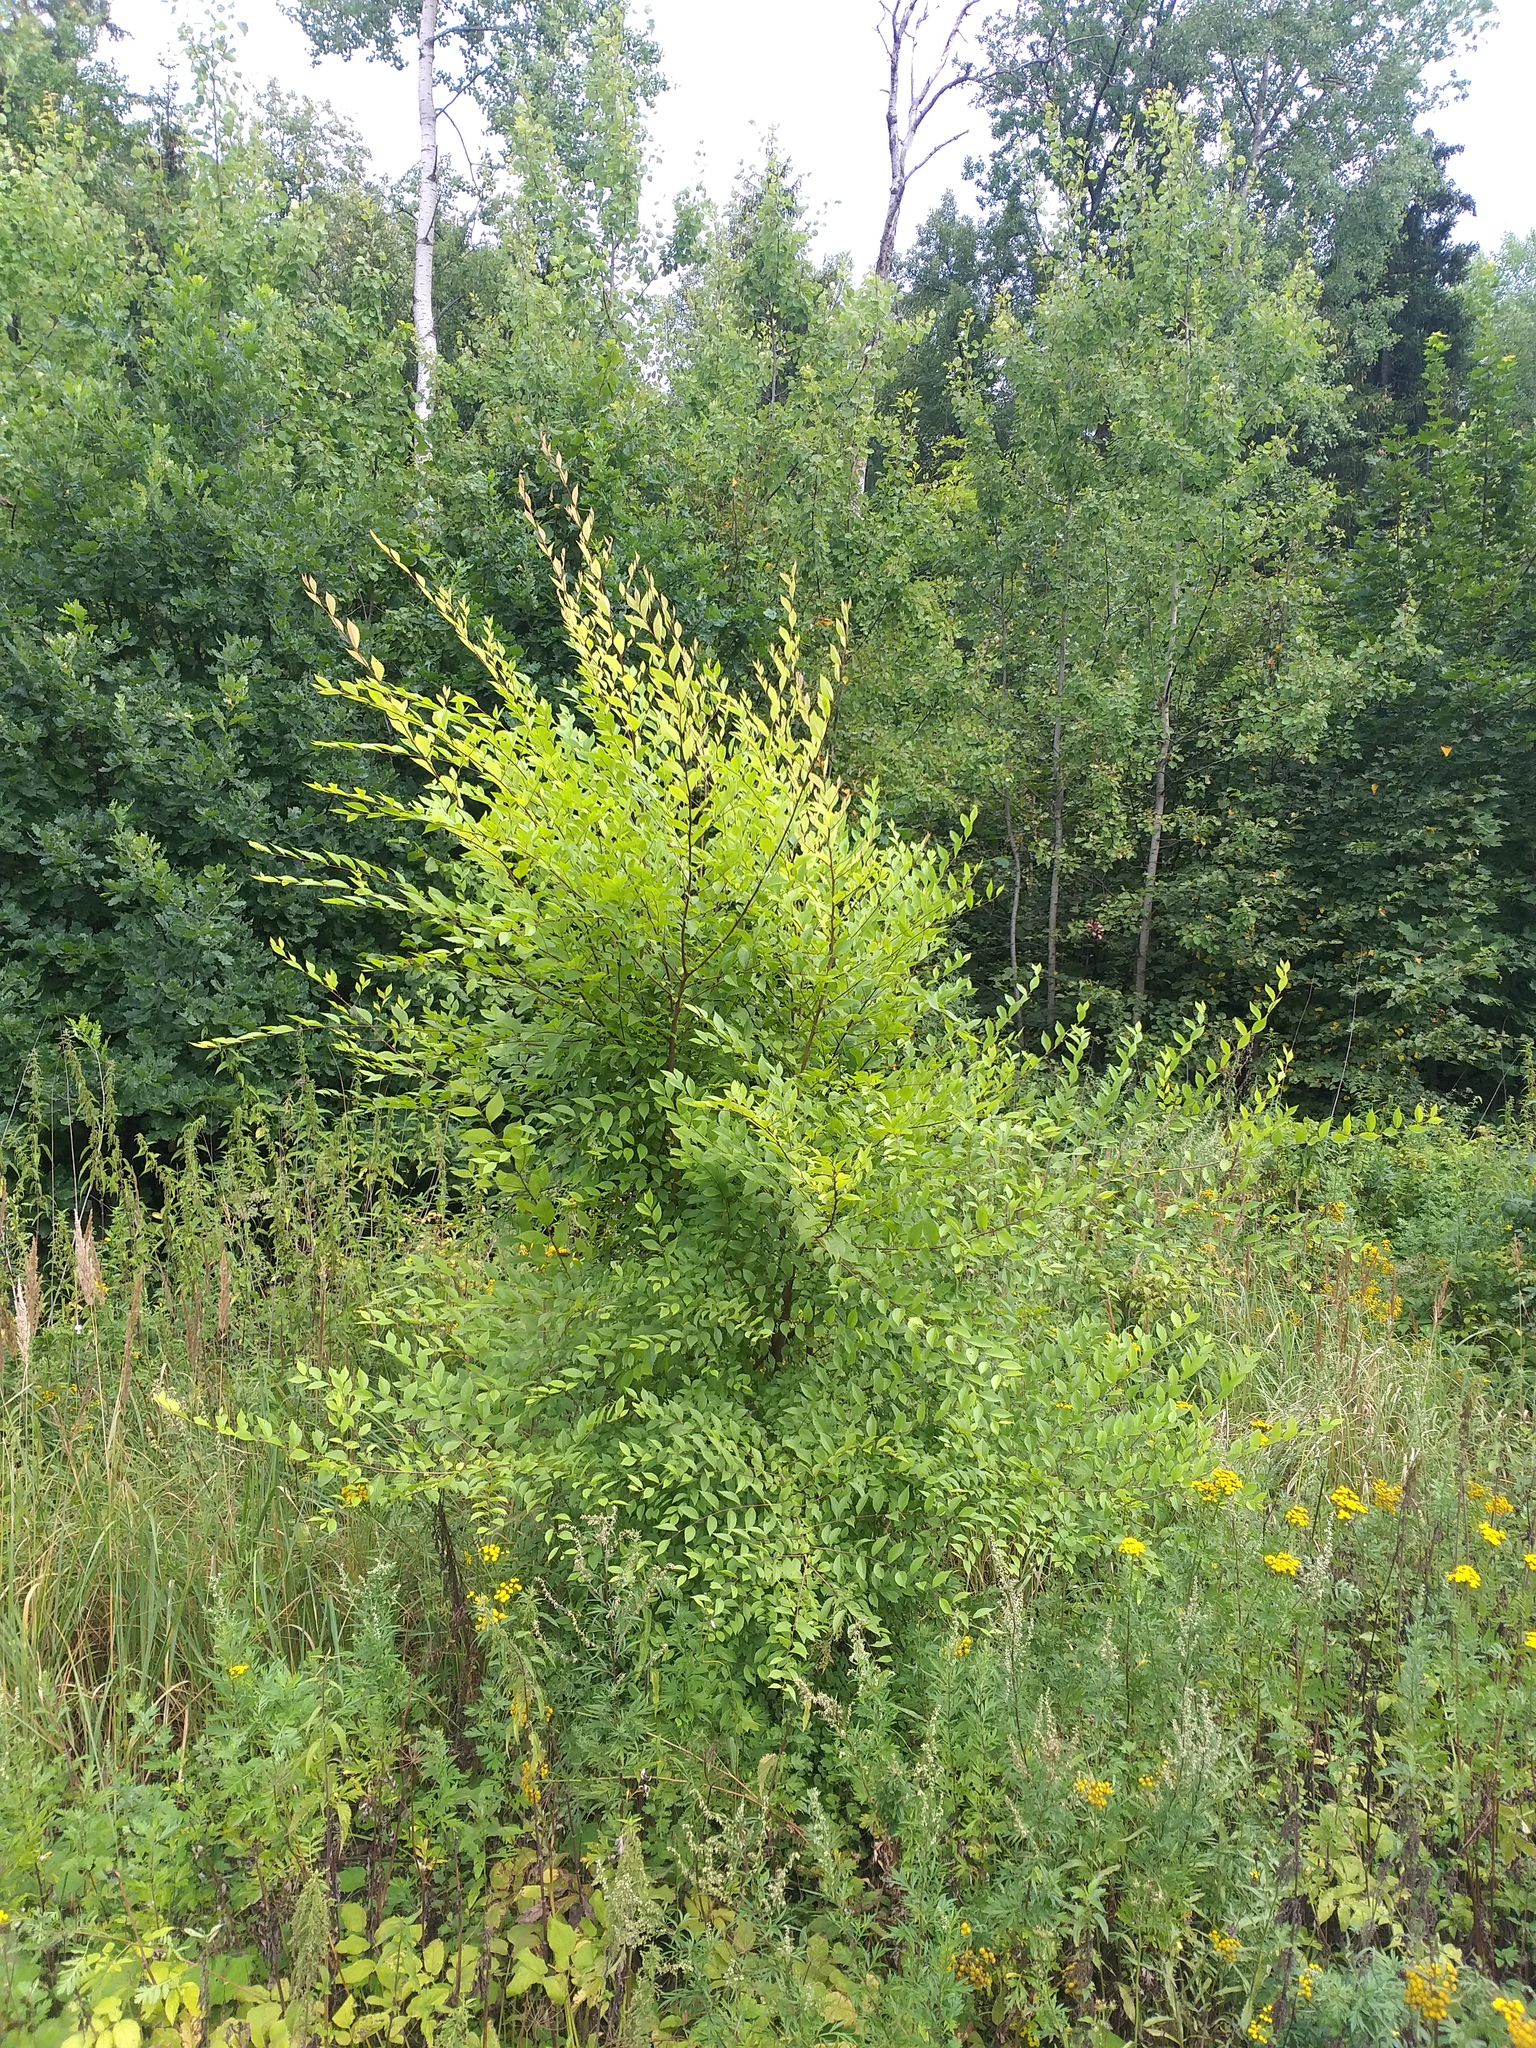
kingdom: Plantae
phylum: Tracheophyta
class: Magnoliopsida
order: Rosales
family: Ulmaceae
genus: Ulmus
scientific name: Ulmus pumila
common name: Siberian elm
